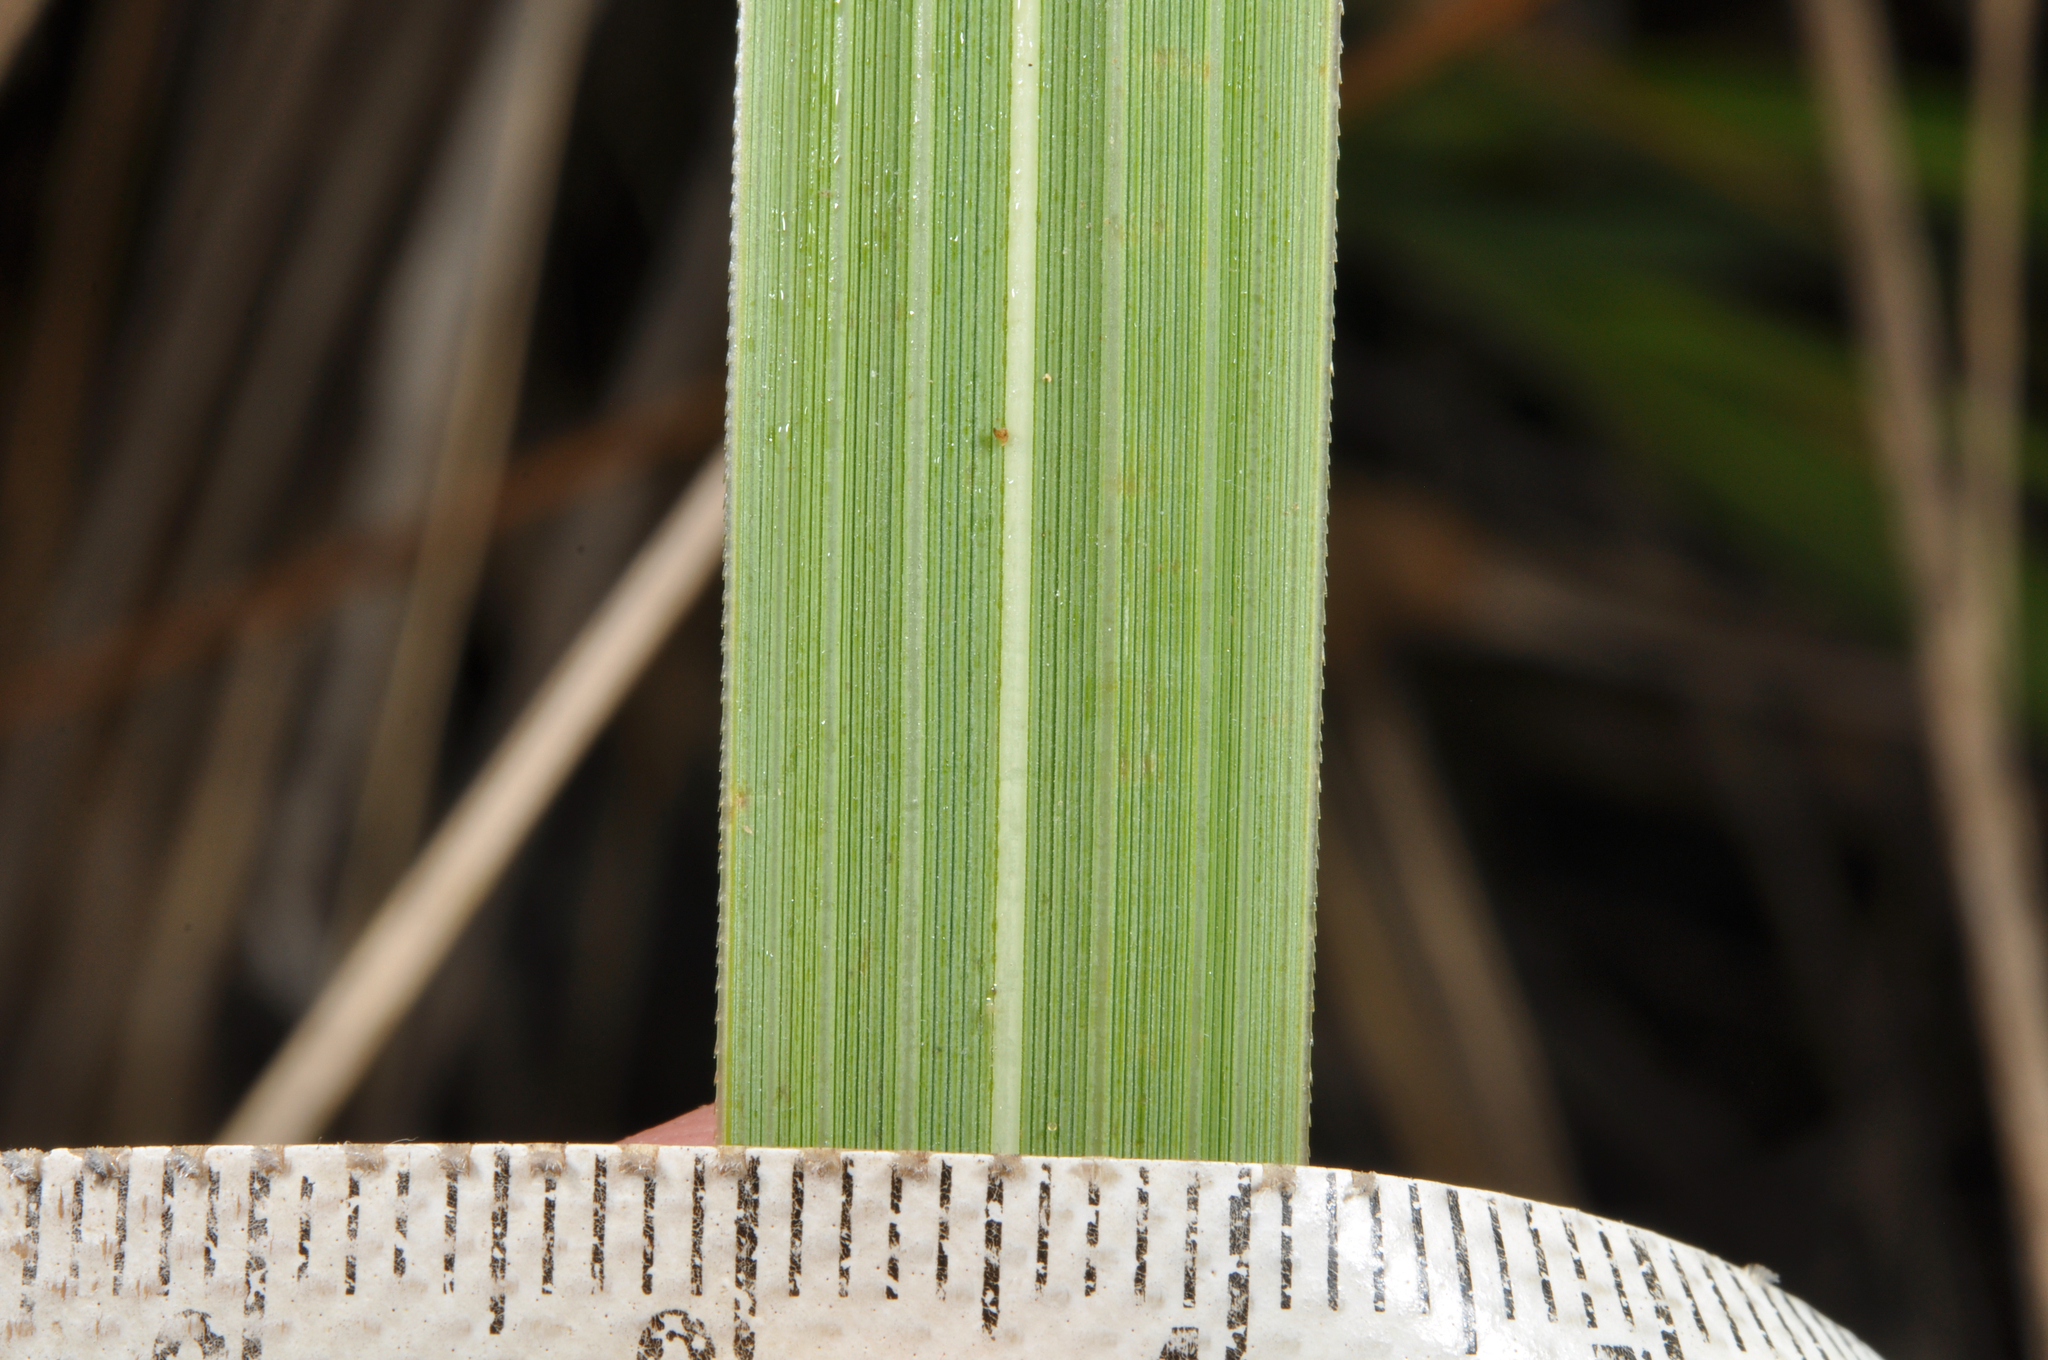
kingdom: Plantae
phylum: Tracheophyta
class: Liliopsida
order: Poales
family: Poaceae
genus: Austroderia
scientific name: Austroderia richardii
